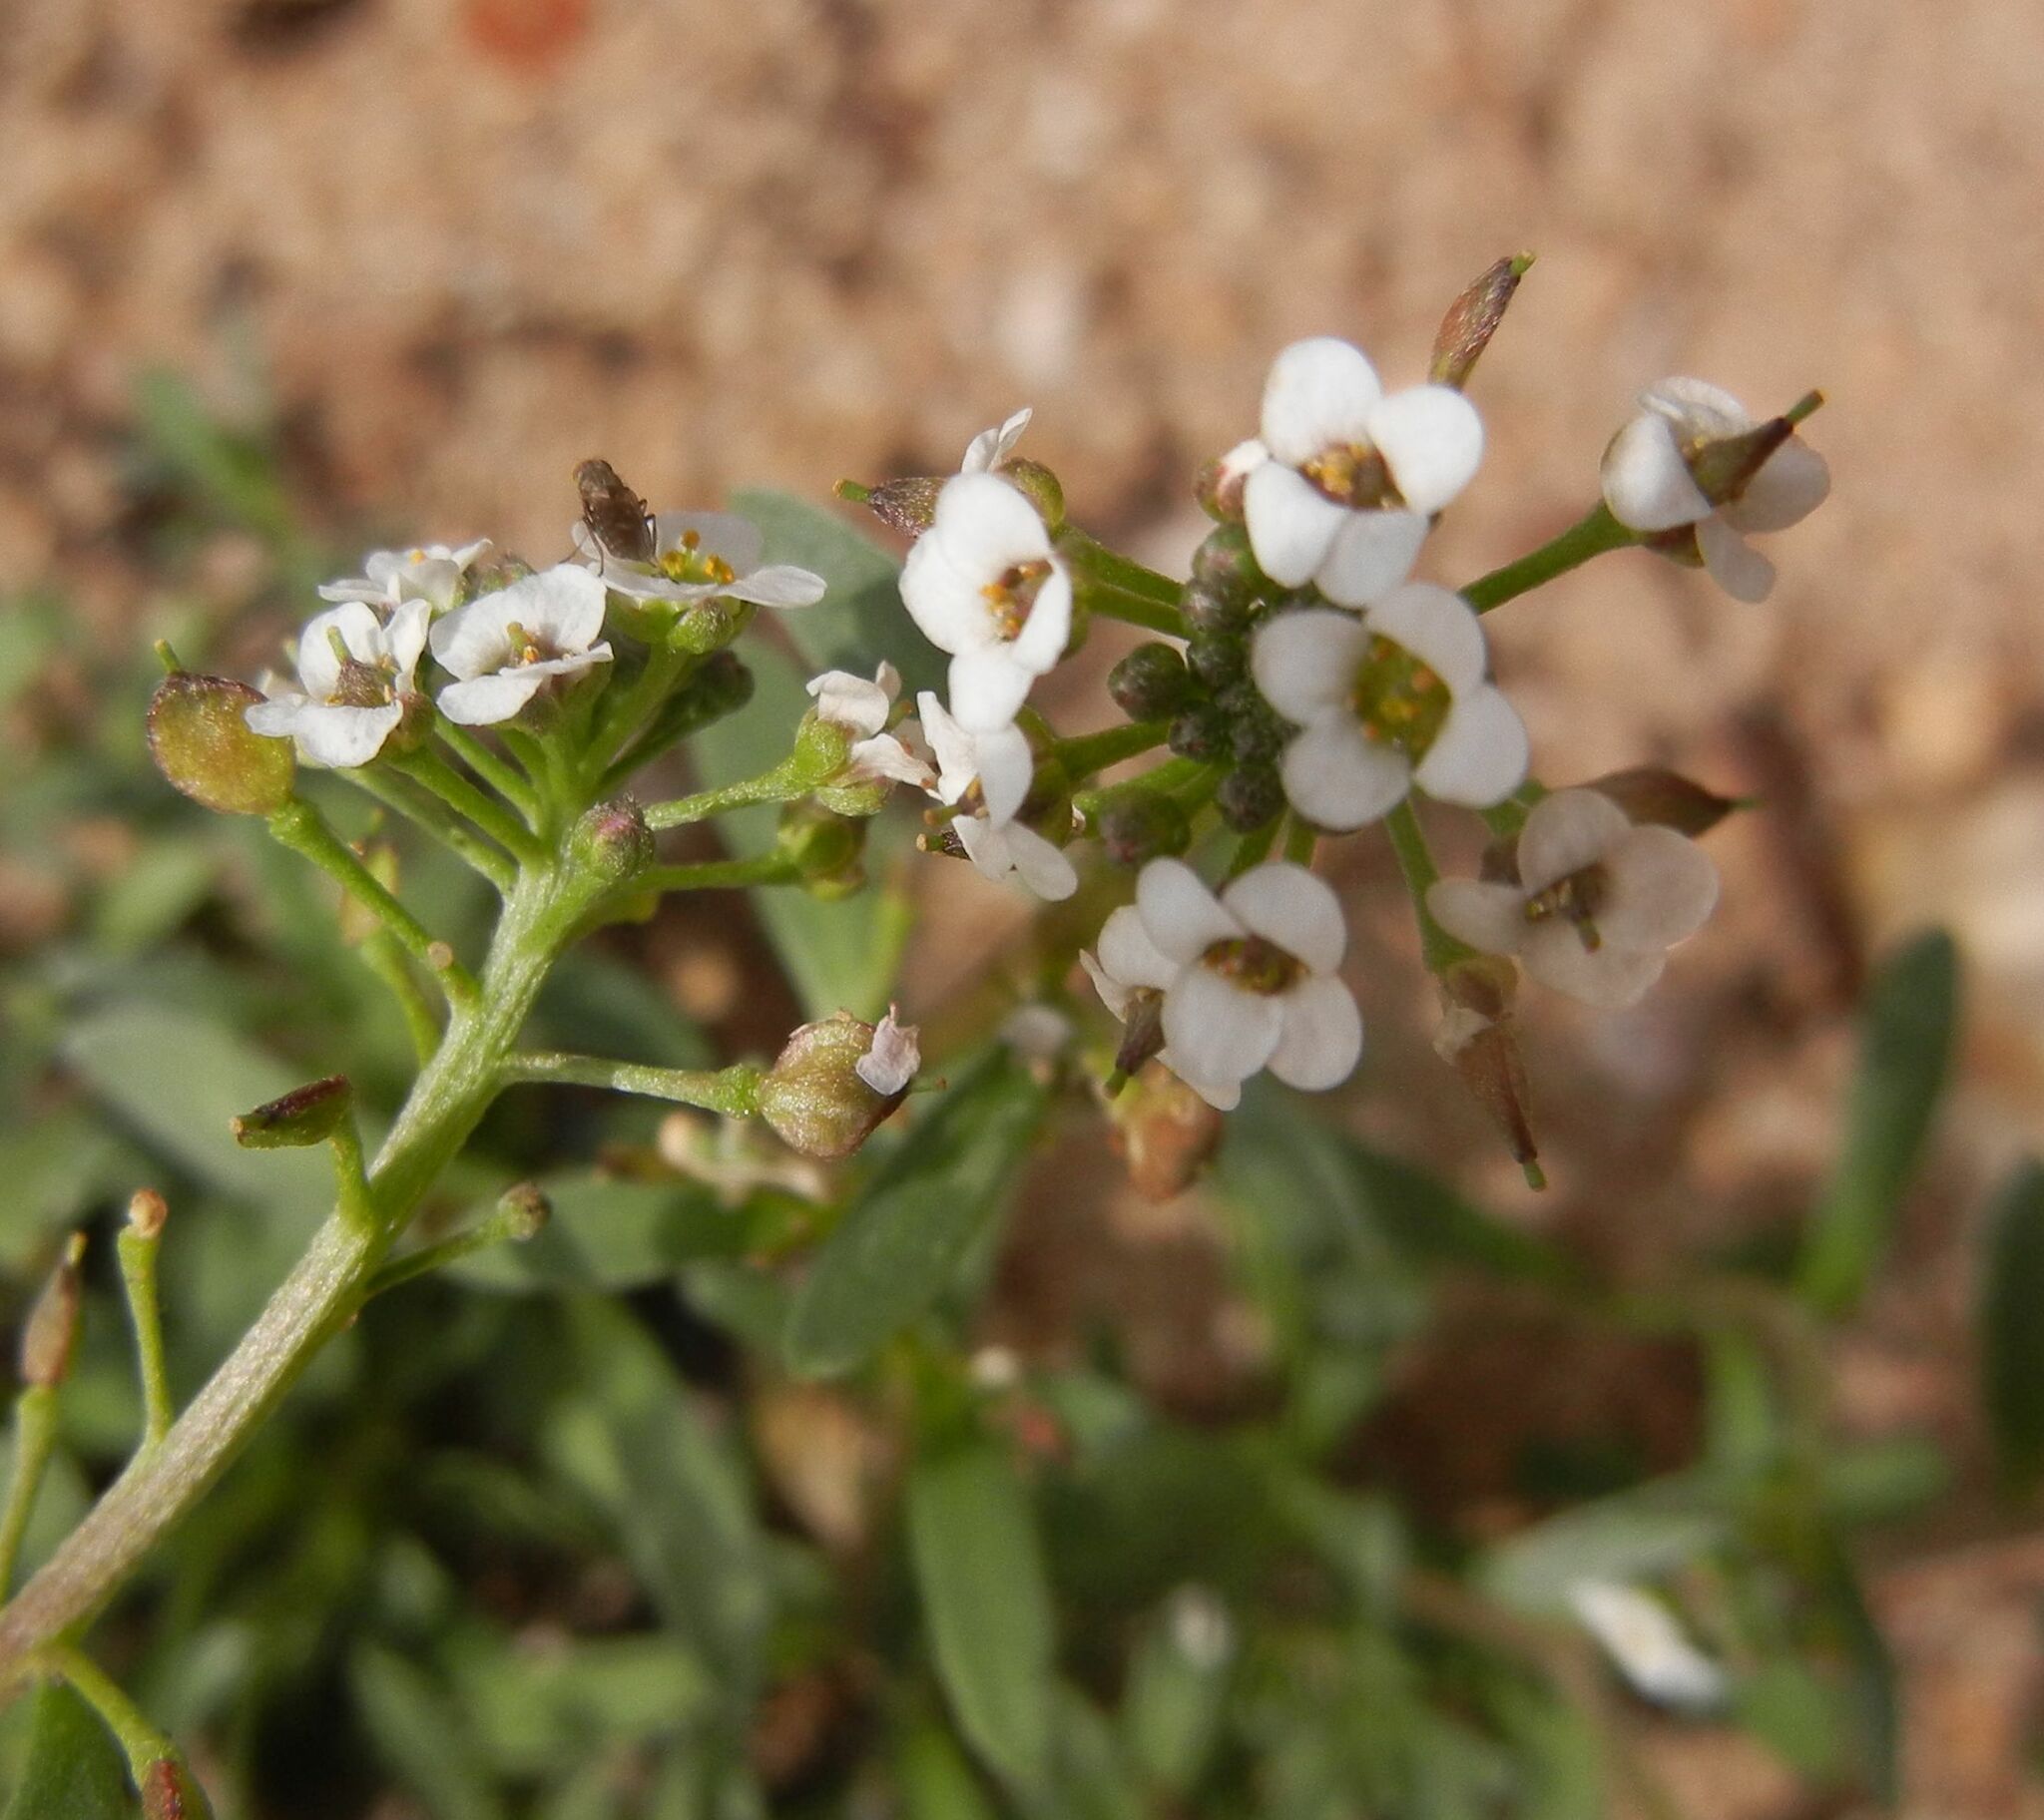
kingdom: Plantae
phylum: Tracheophyta
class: Magnoliopsida
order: Brassicales
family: Brassicaceae
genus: Lobularia
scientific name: Lobularia maritima
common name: Sweet alison
